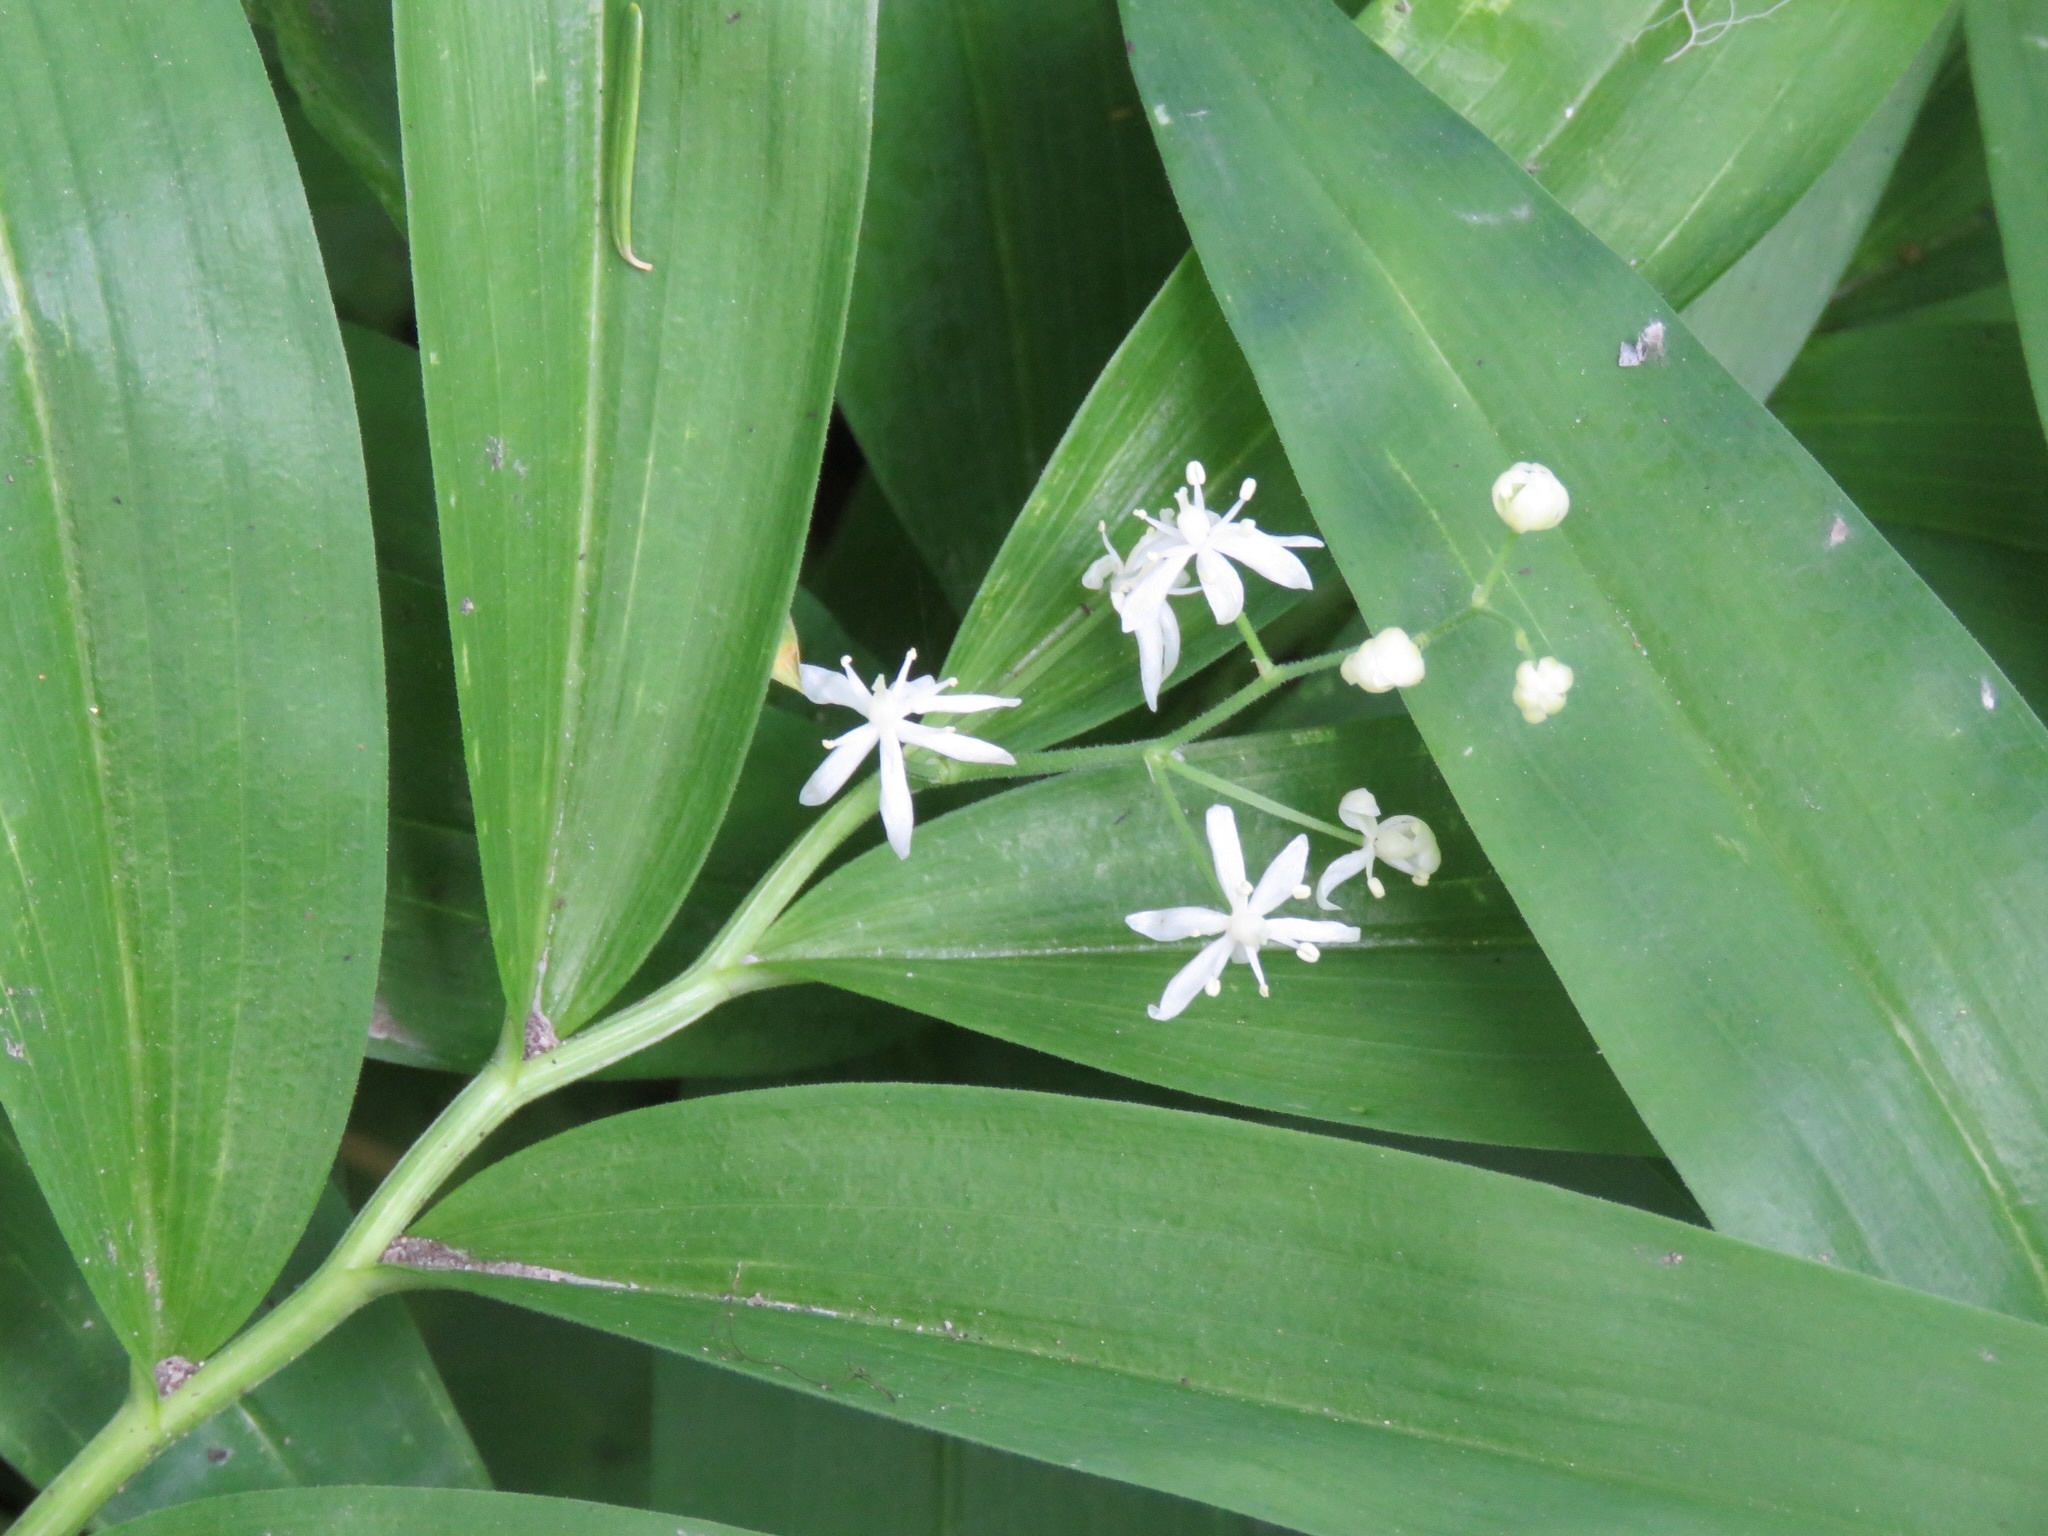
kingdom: Plantae
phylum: Tracheophyta
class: Liliopsida
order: Asparagales
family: Asparagaceae
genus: Maianthemum
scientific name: Maianthemum stellatum
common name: Little false solomon's seal
